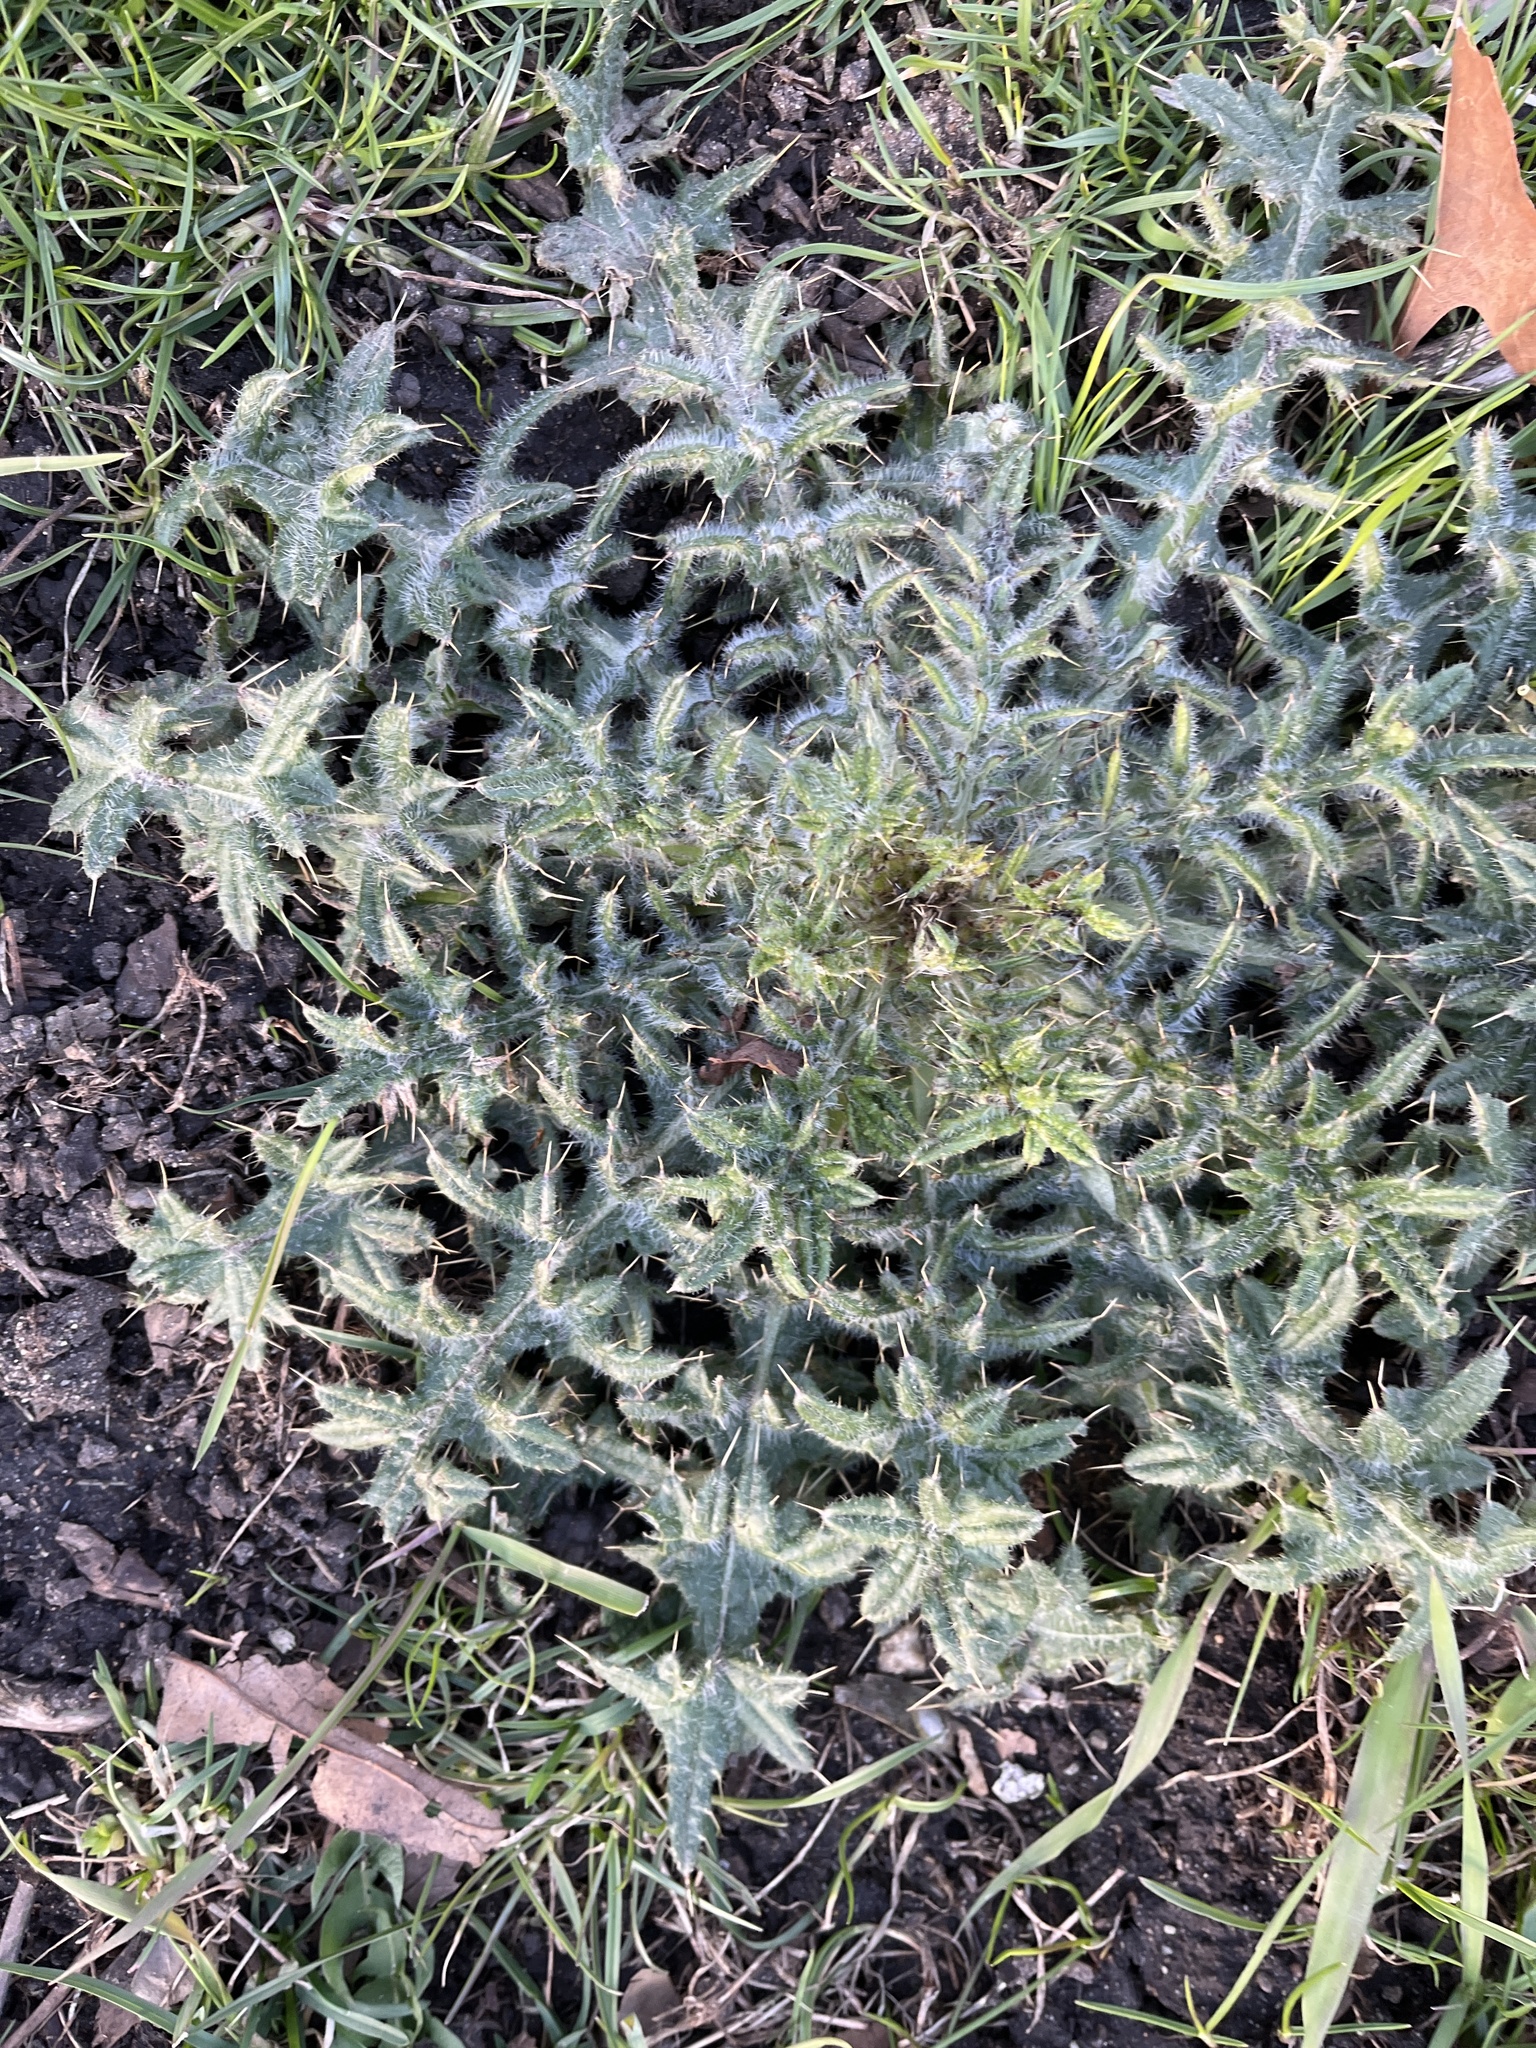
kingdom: Plantae
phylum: Tracheophyta
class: Magnoliopsida
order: Asterales
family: Asteraceae
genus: Cirsium
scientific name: Cirsium vulgare
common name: Bull thistle
